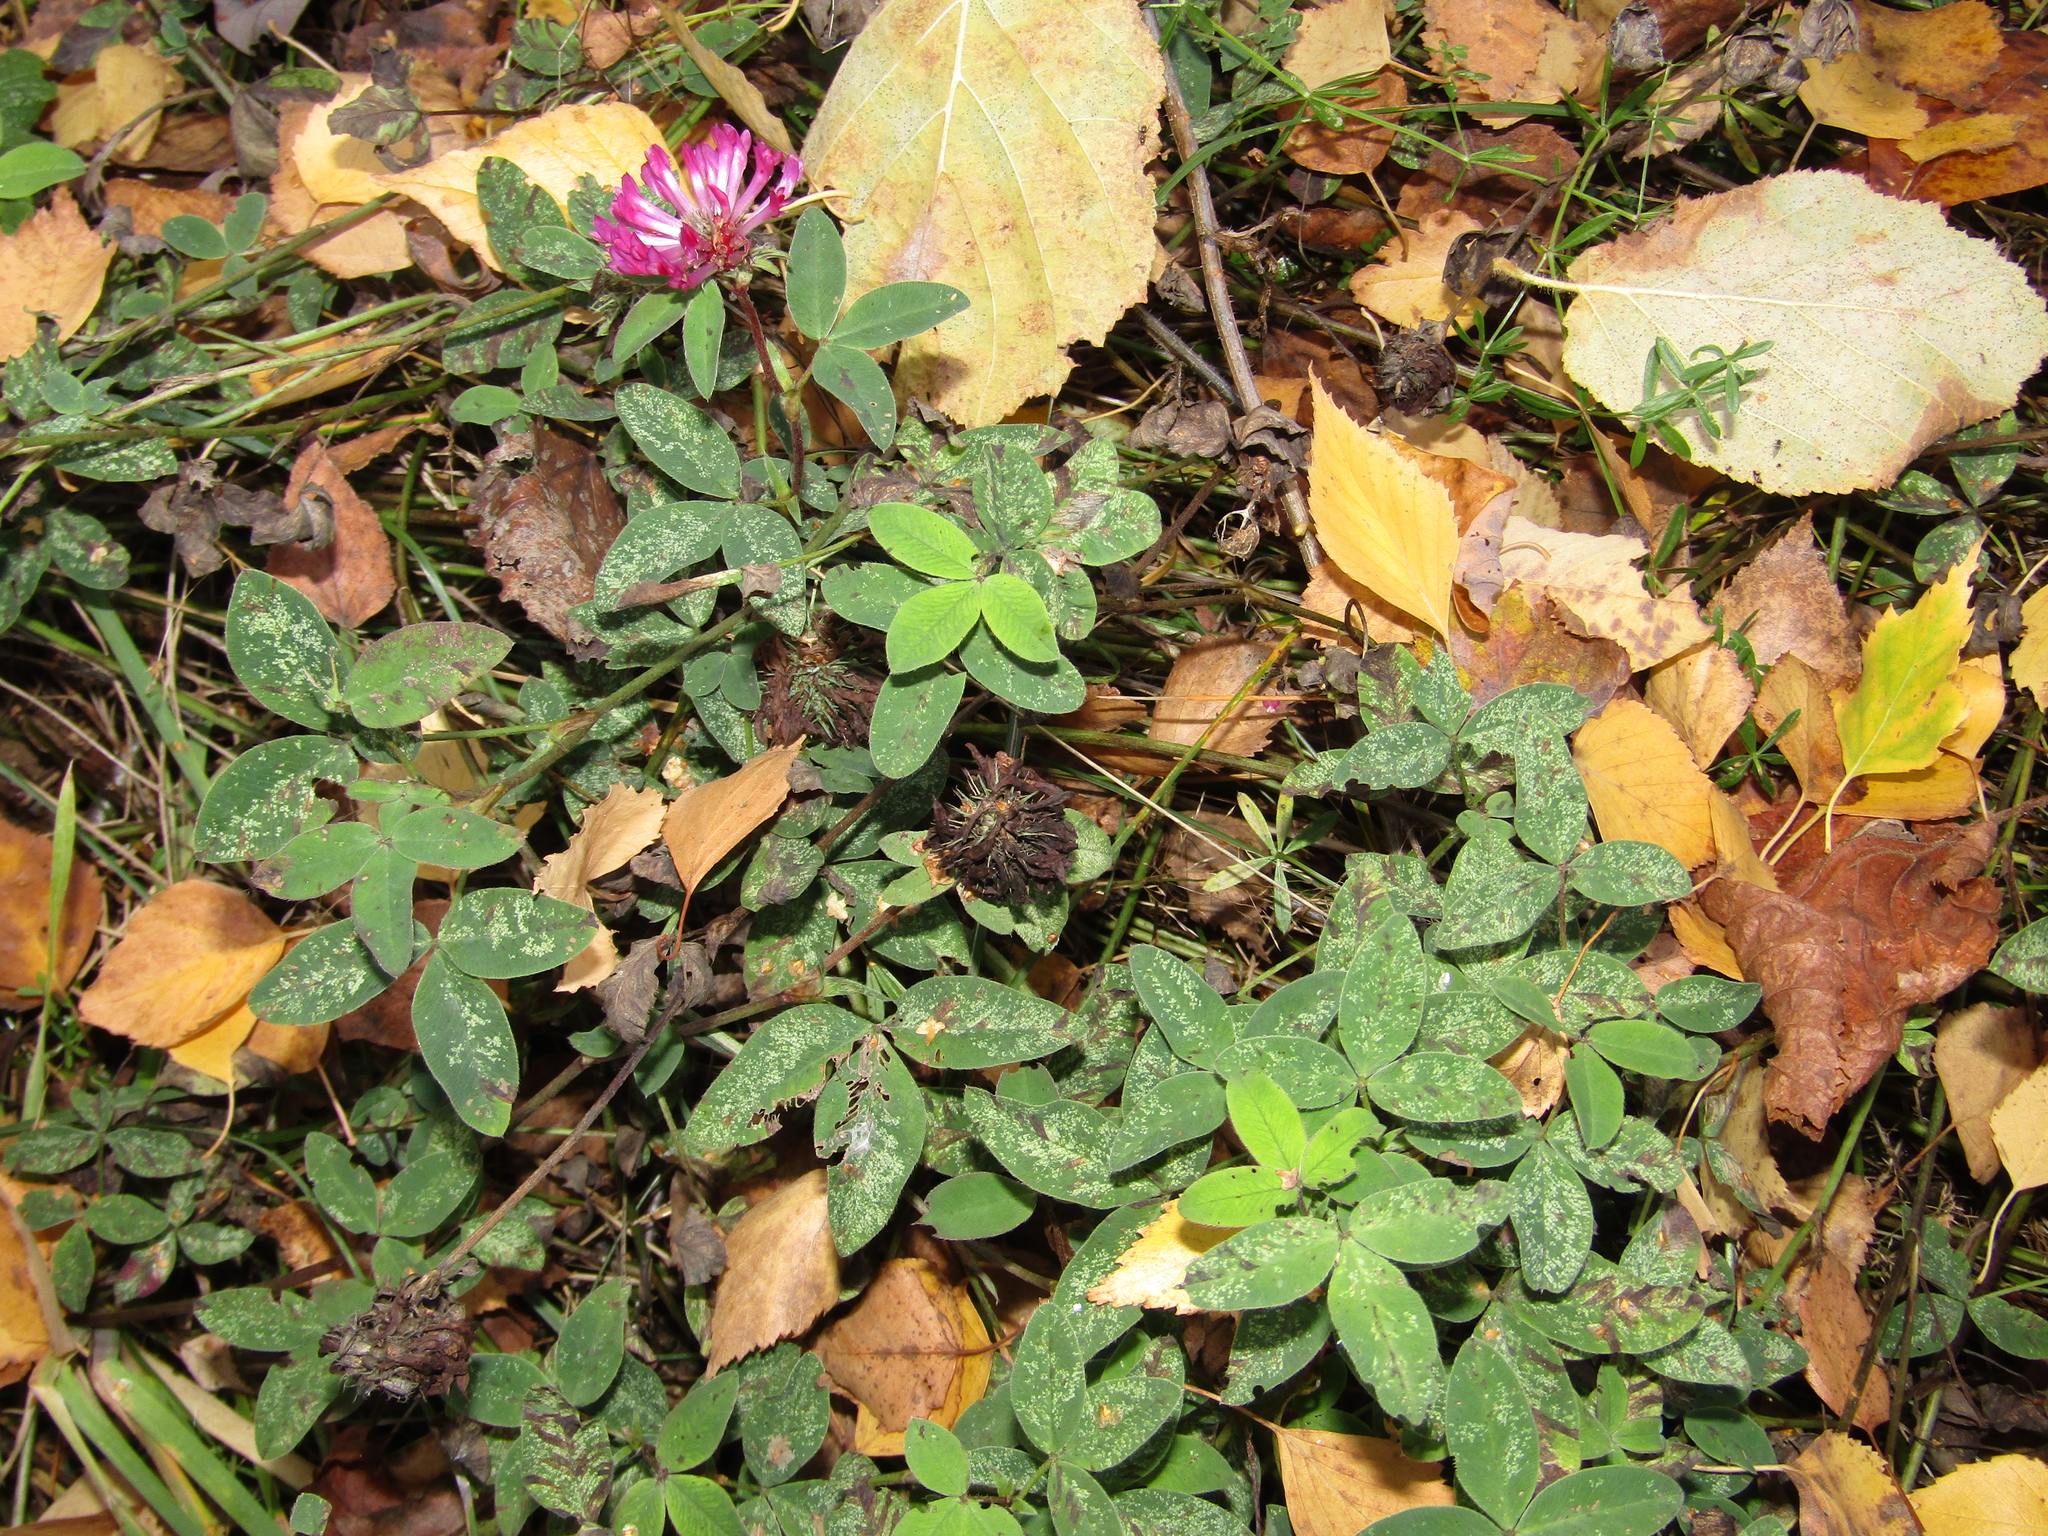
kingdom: Plantae
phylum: Tracheophyta
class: Magnoliopsida
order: Fabales
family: Fabaceae
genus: Trifolium
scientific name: Trifolium medium
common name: Zigzag clover
